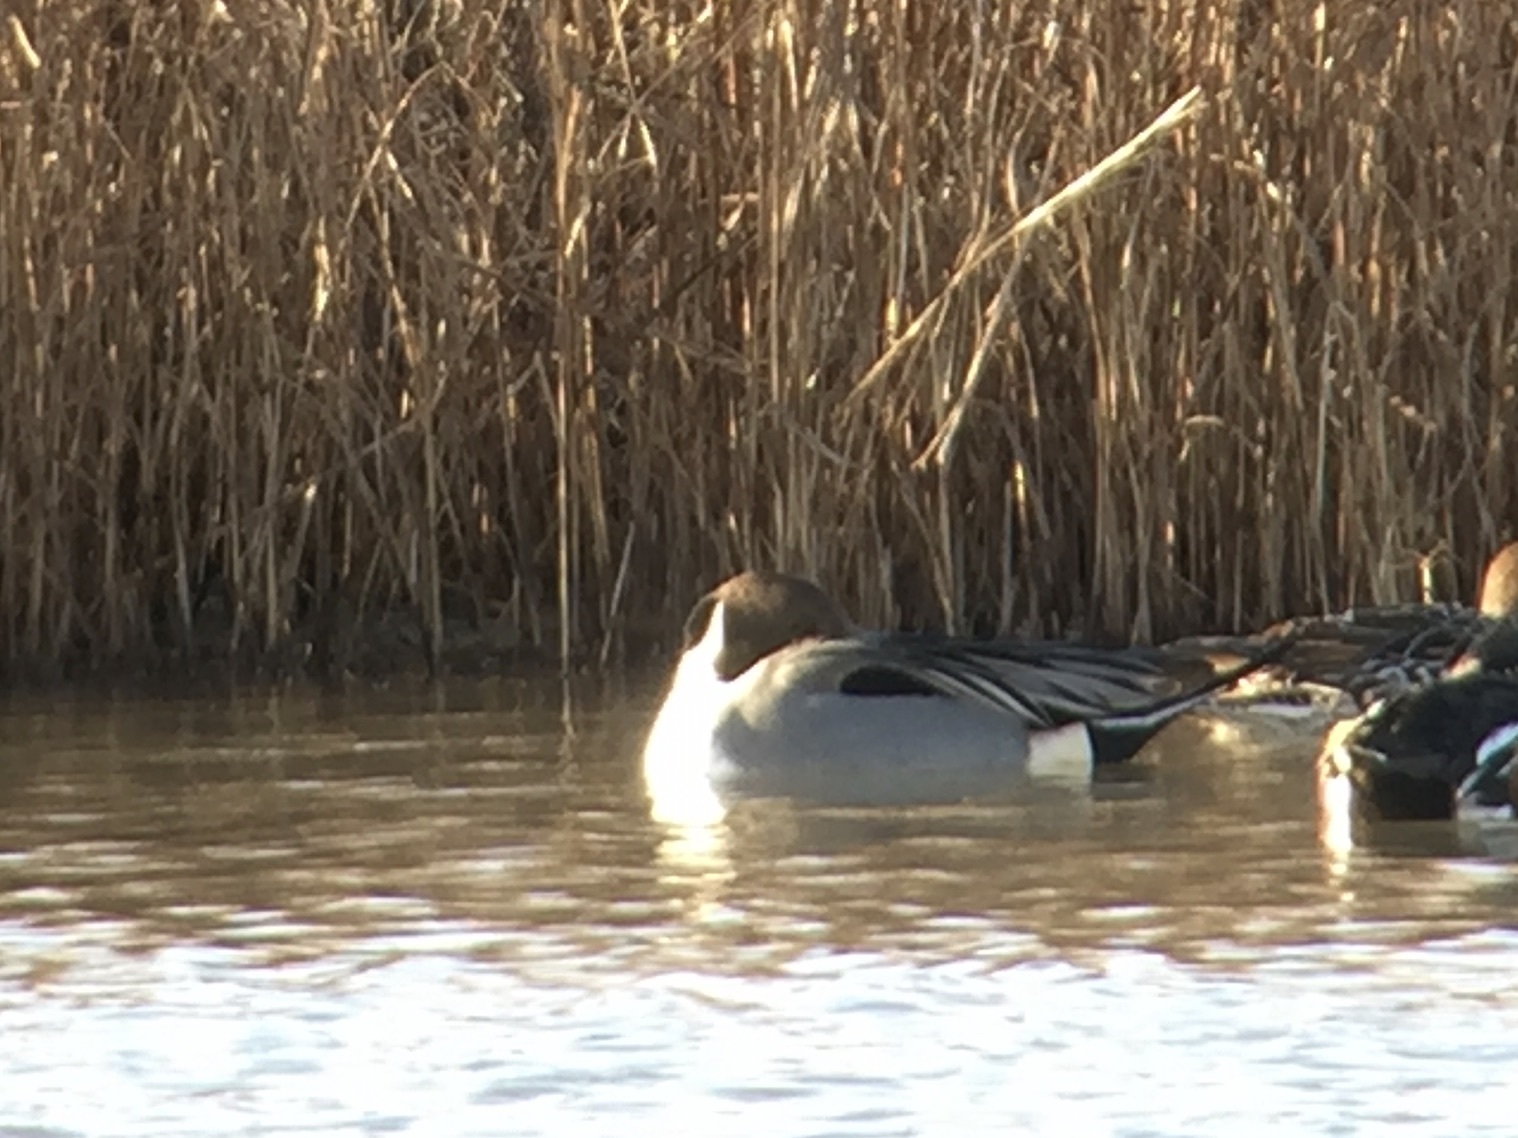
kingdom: Animalia
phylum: Chordata
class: Aves
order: Anseriformes
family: Anatidae
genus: Anas
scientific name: Anas acuta
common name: Northern pintail
